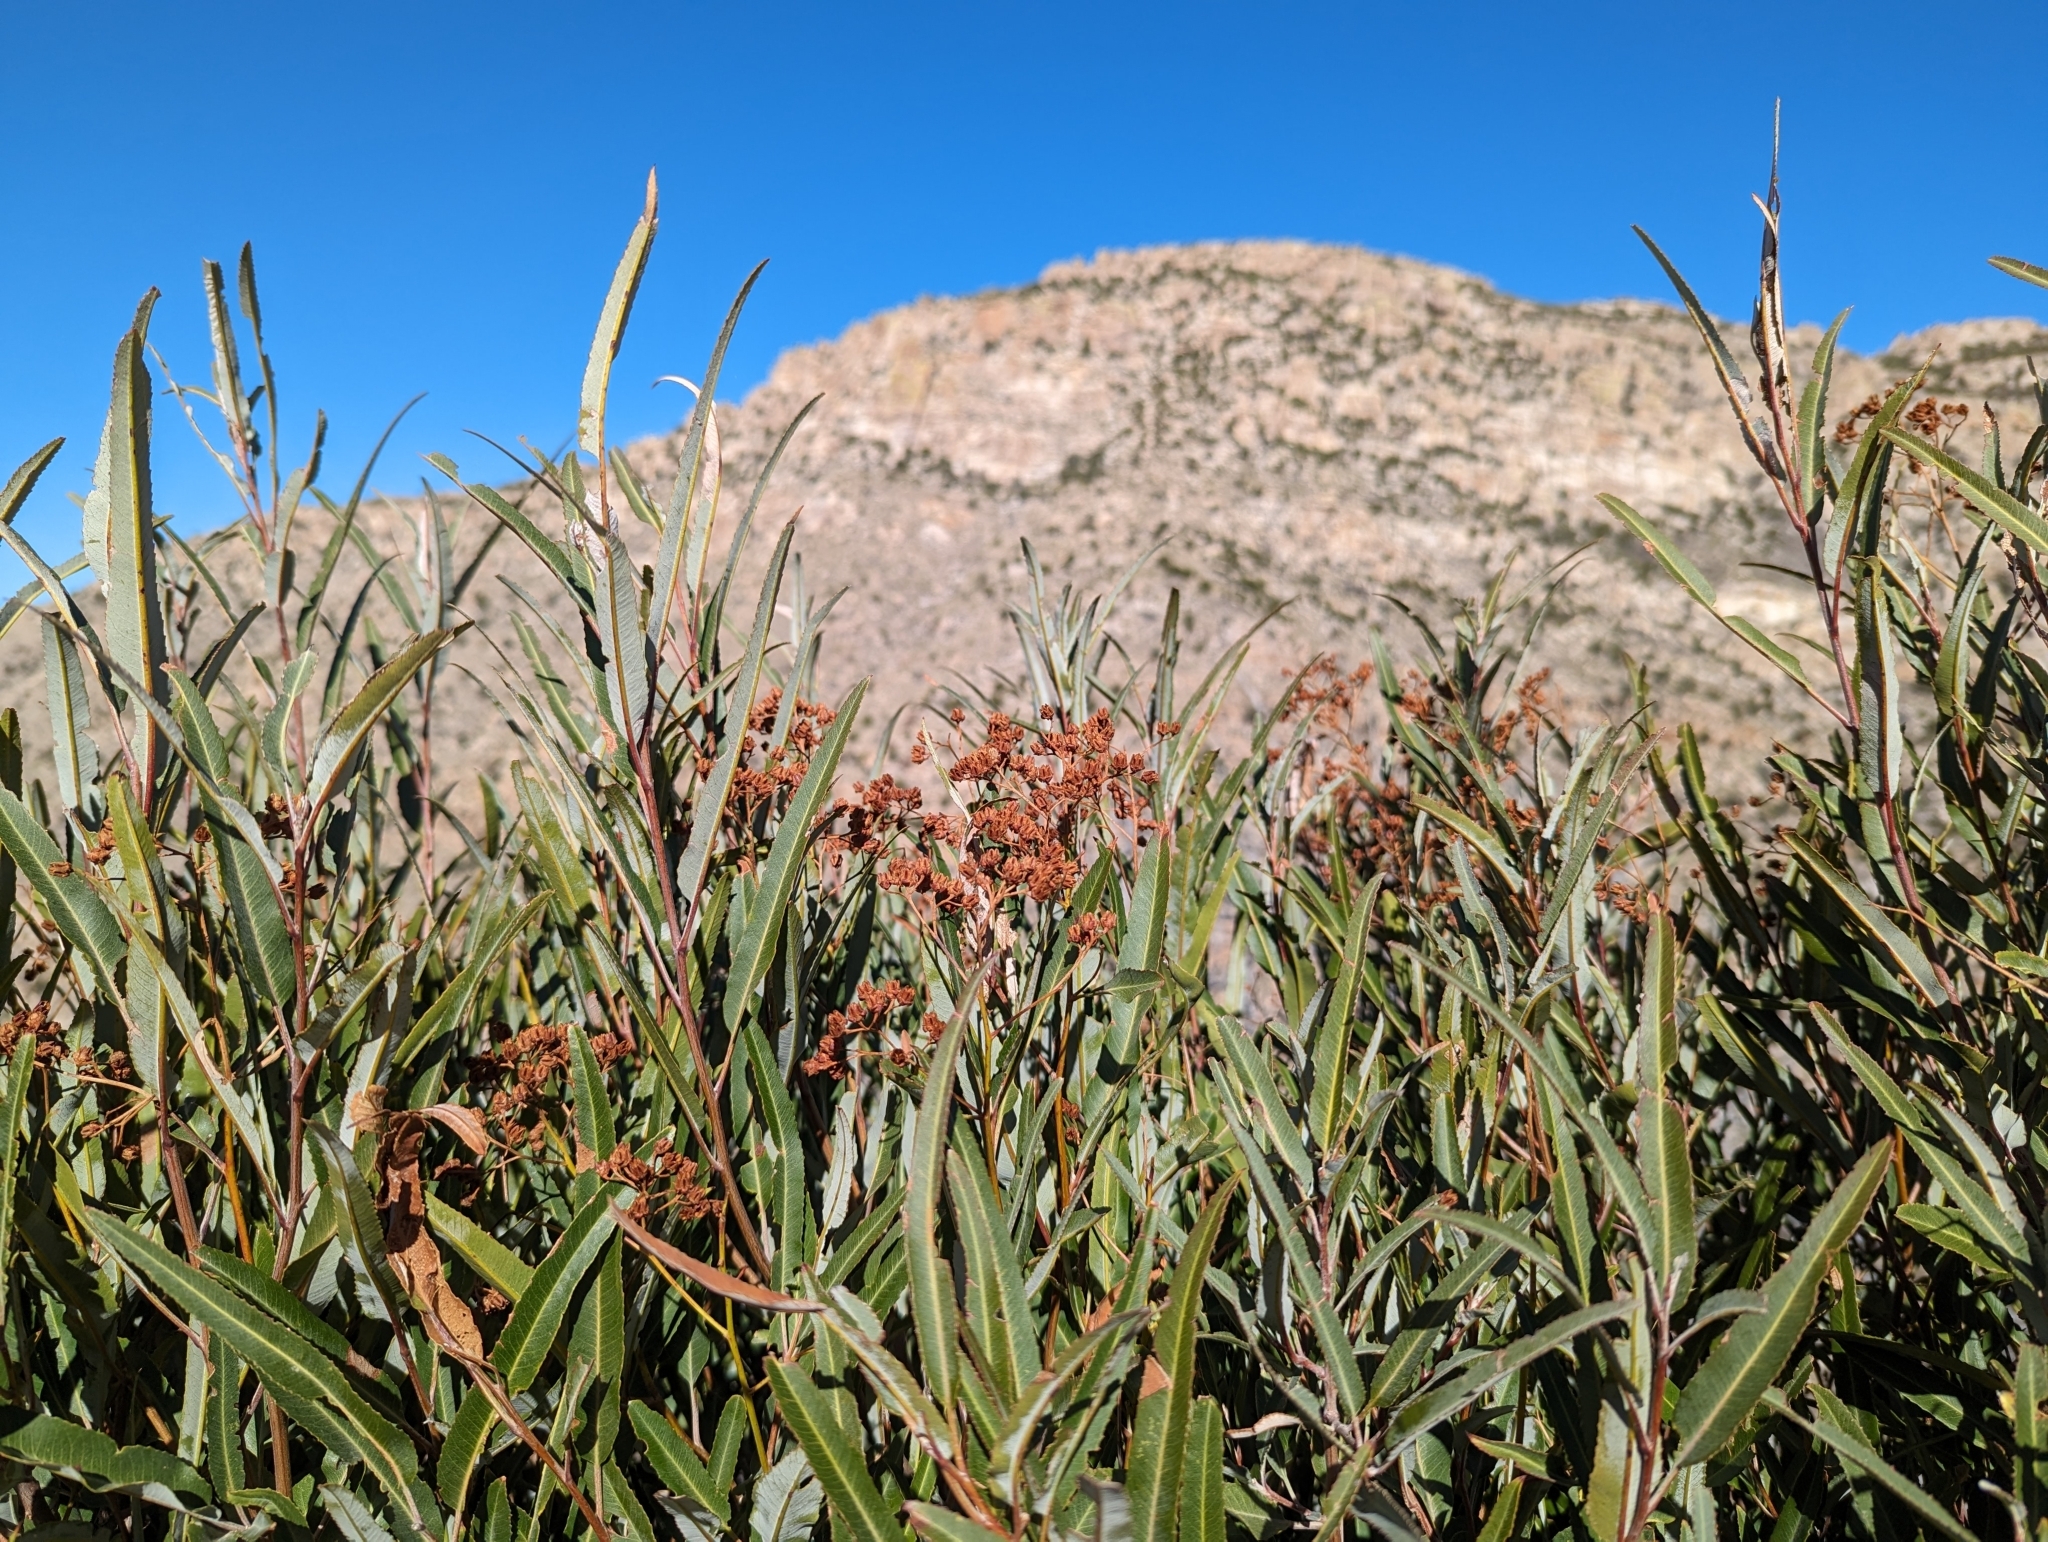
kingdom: Plantae
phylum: Tracheophyta
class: Magnoliopsida
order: Rosales
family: Rosaceae
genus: Vauquelinia
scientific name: Vauquelinia californica
